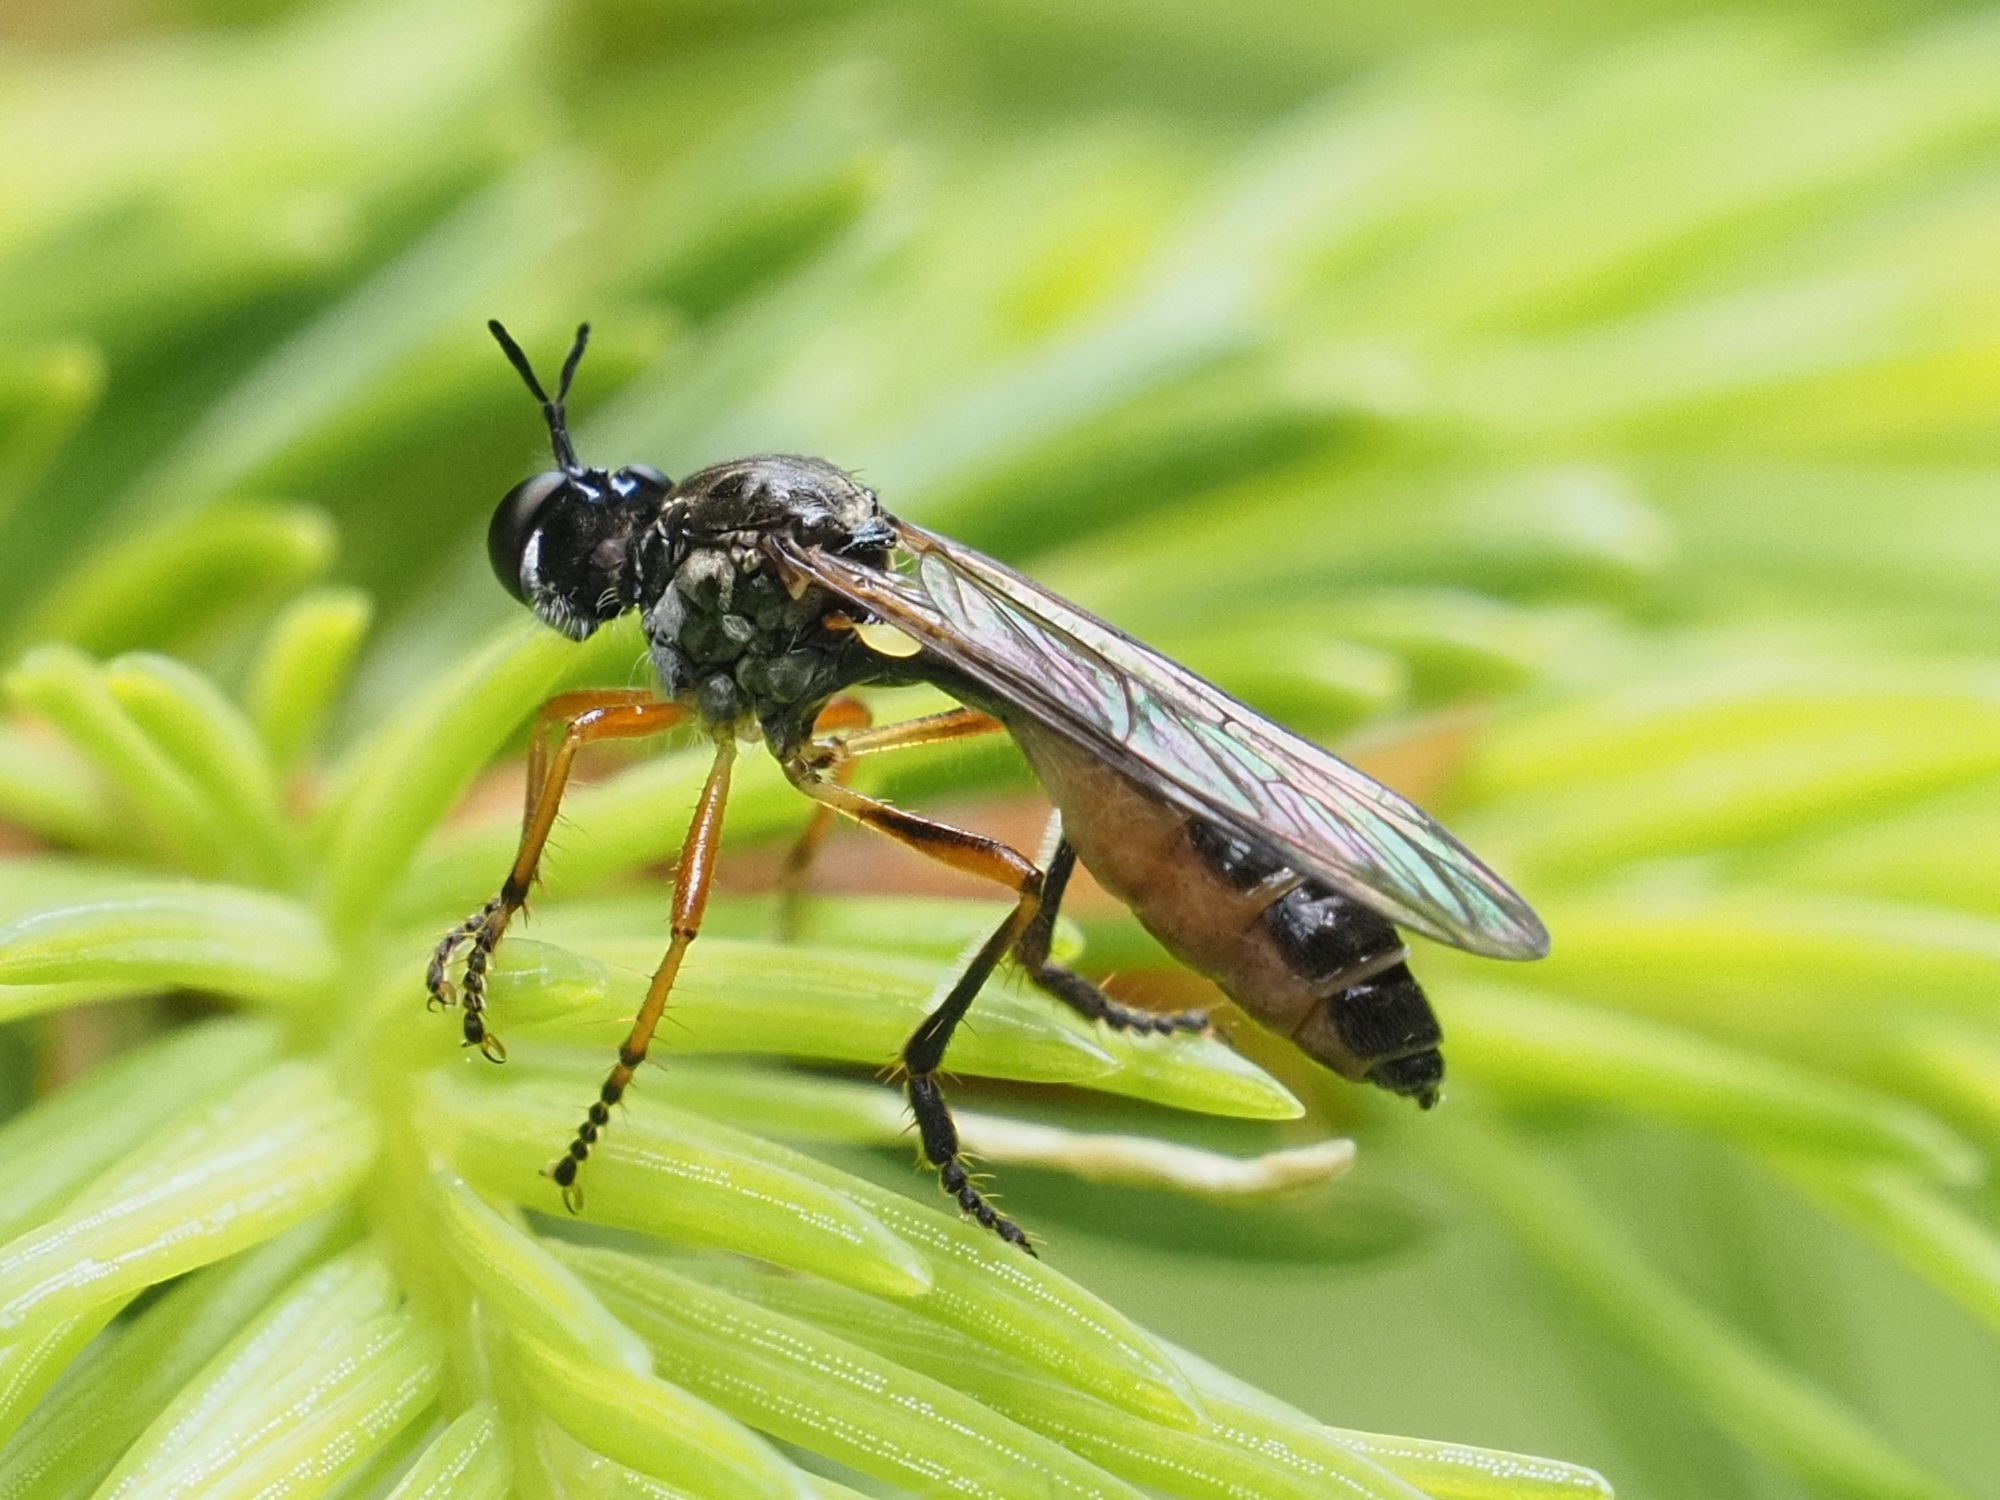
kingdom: Animalia
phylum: Arthropoda
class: Insecta
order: Diptera
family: Asilidae
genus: Dioctria
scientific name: Dioctria hyalipennis
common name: Stripe-legged robberfly
